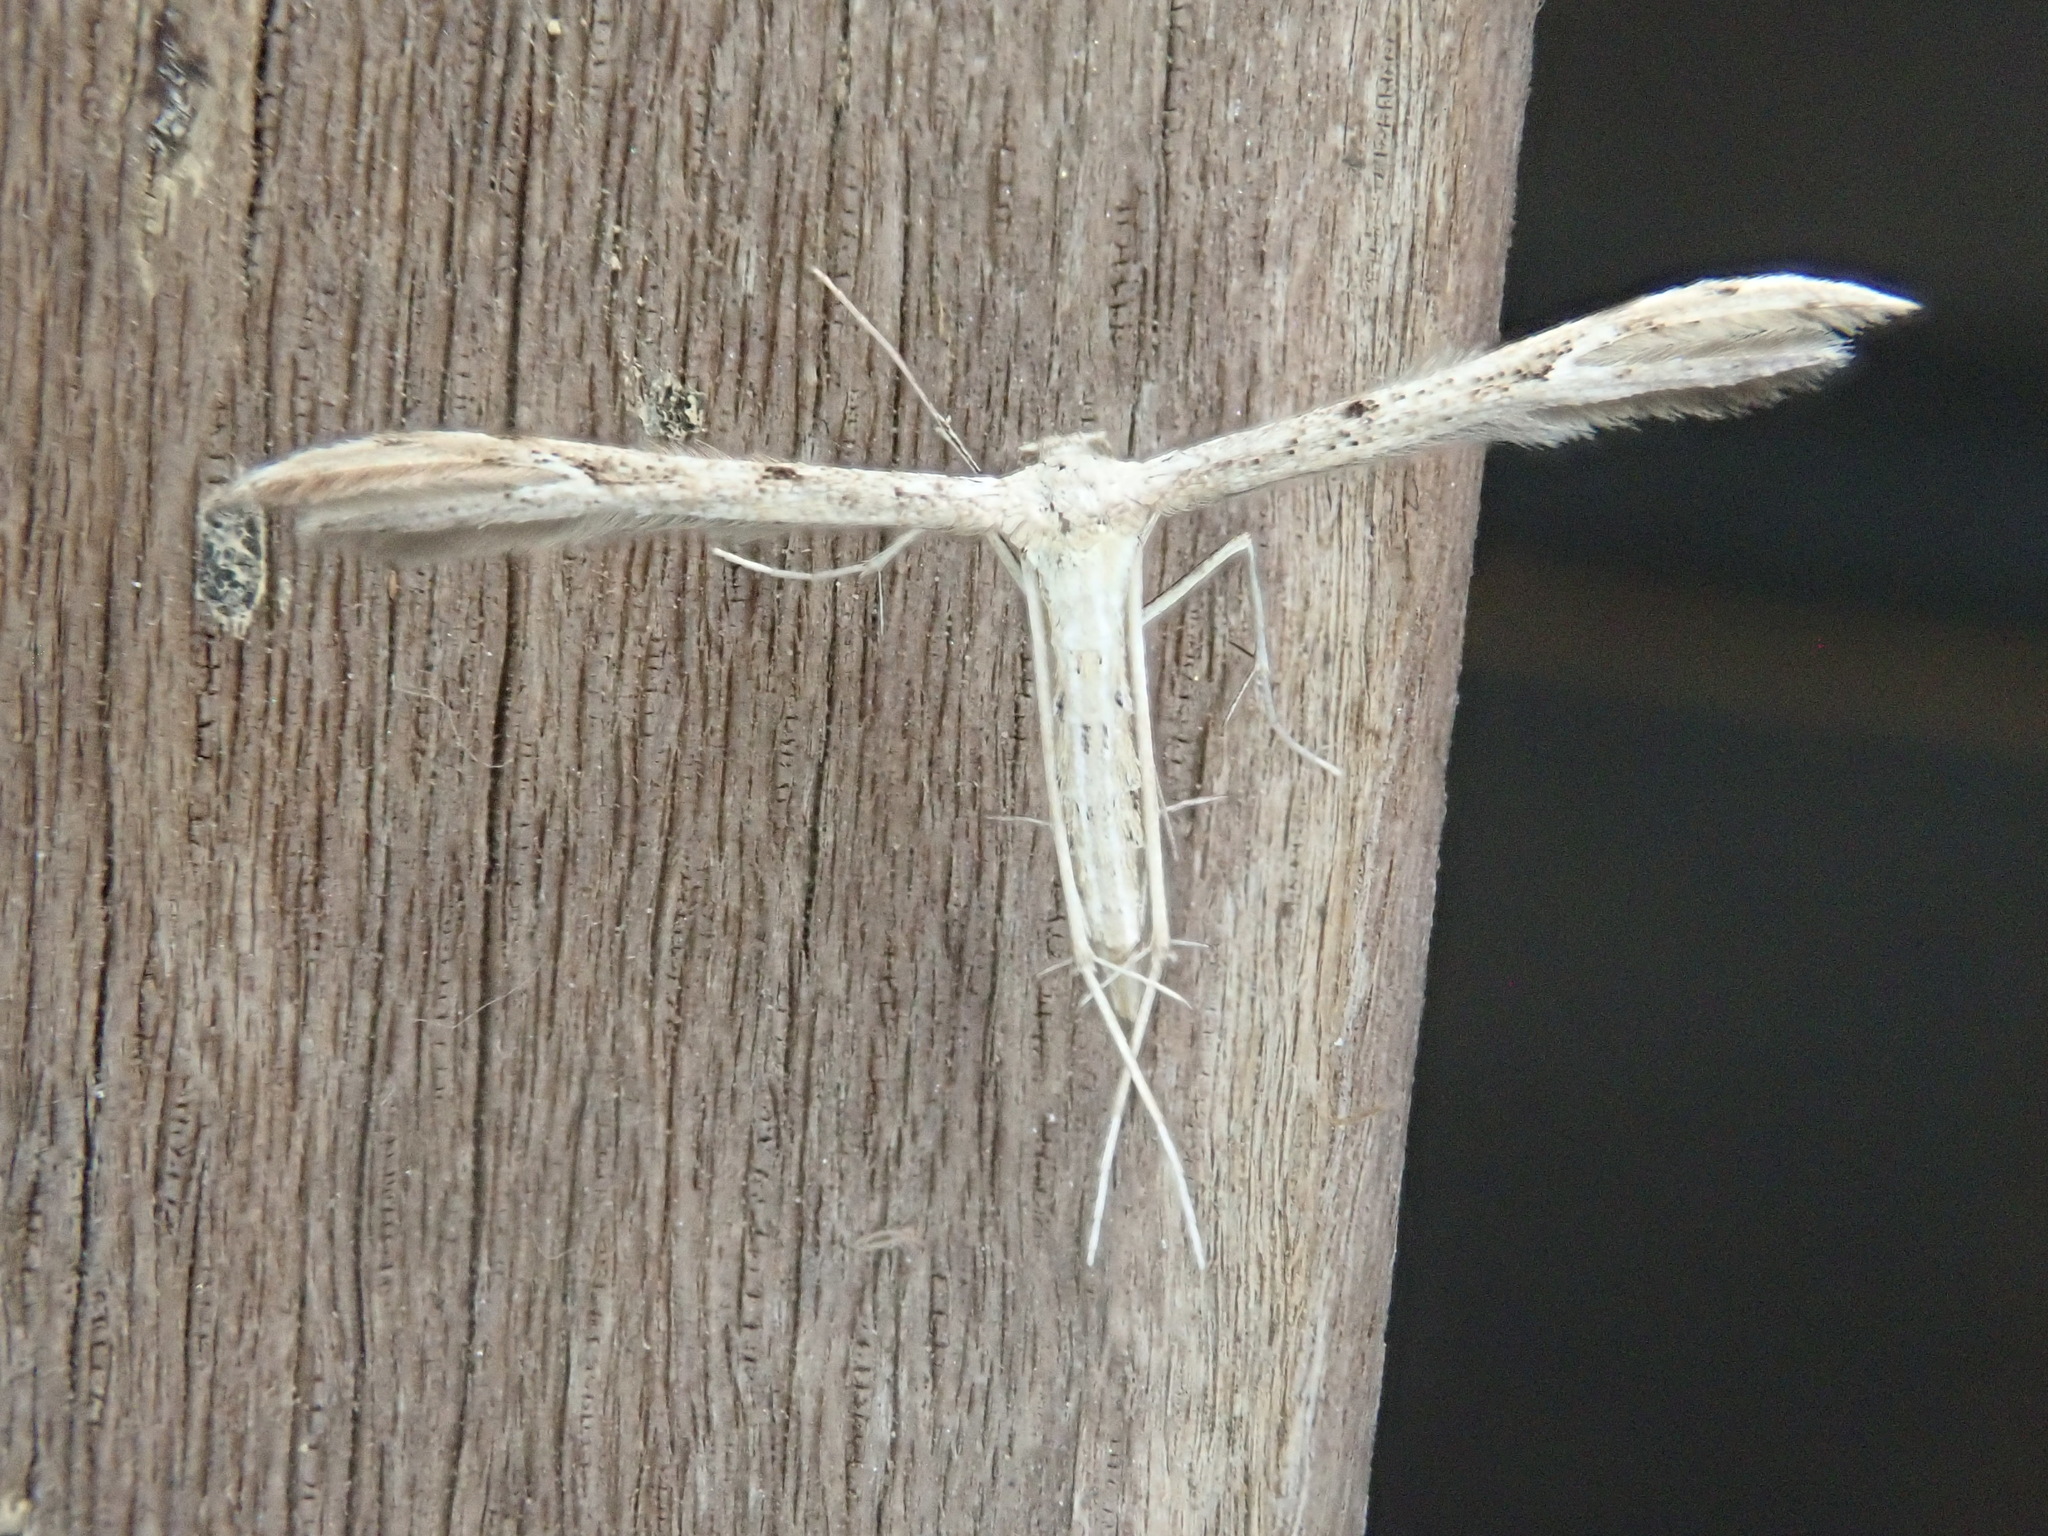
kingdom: Animalia
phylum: Arthropoda
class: Insecta
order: Lepidoptera
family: Pterophoridae
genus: Pselnophorus
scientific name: Pselnophorus belfragei
